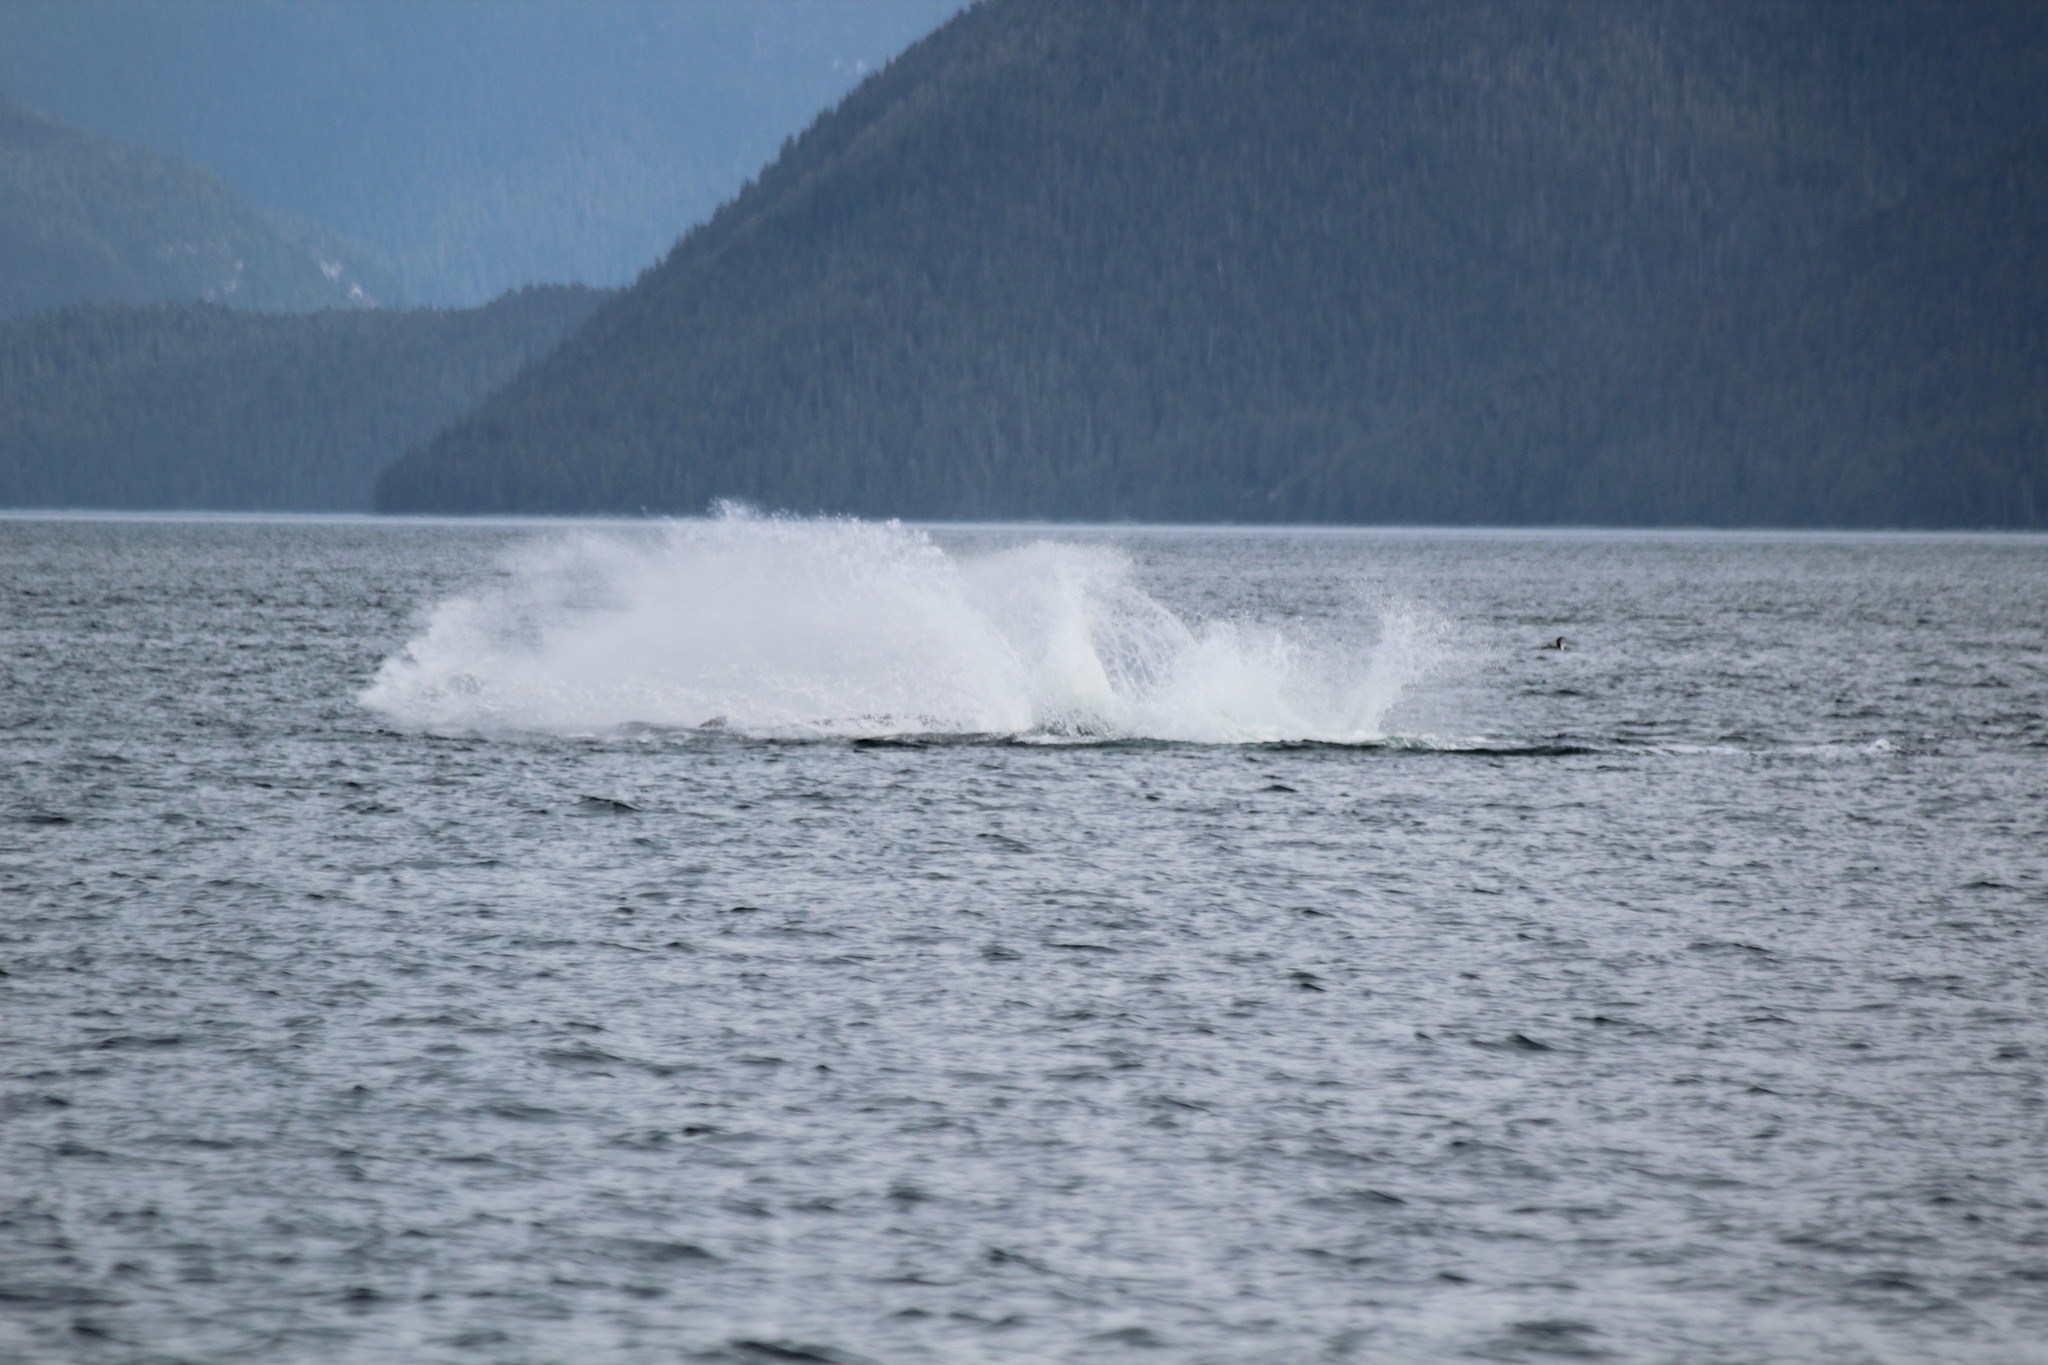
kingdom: Animalia
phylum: Chordata
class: Mammalia
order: Cetacea
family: Balaenopteridae
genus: Megaptera
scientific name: Megaptera novaeangliae
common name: Humpback whale
